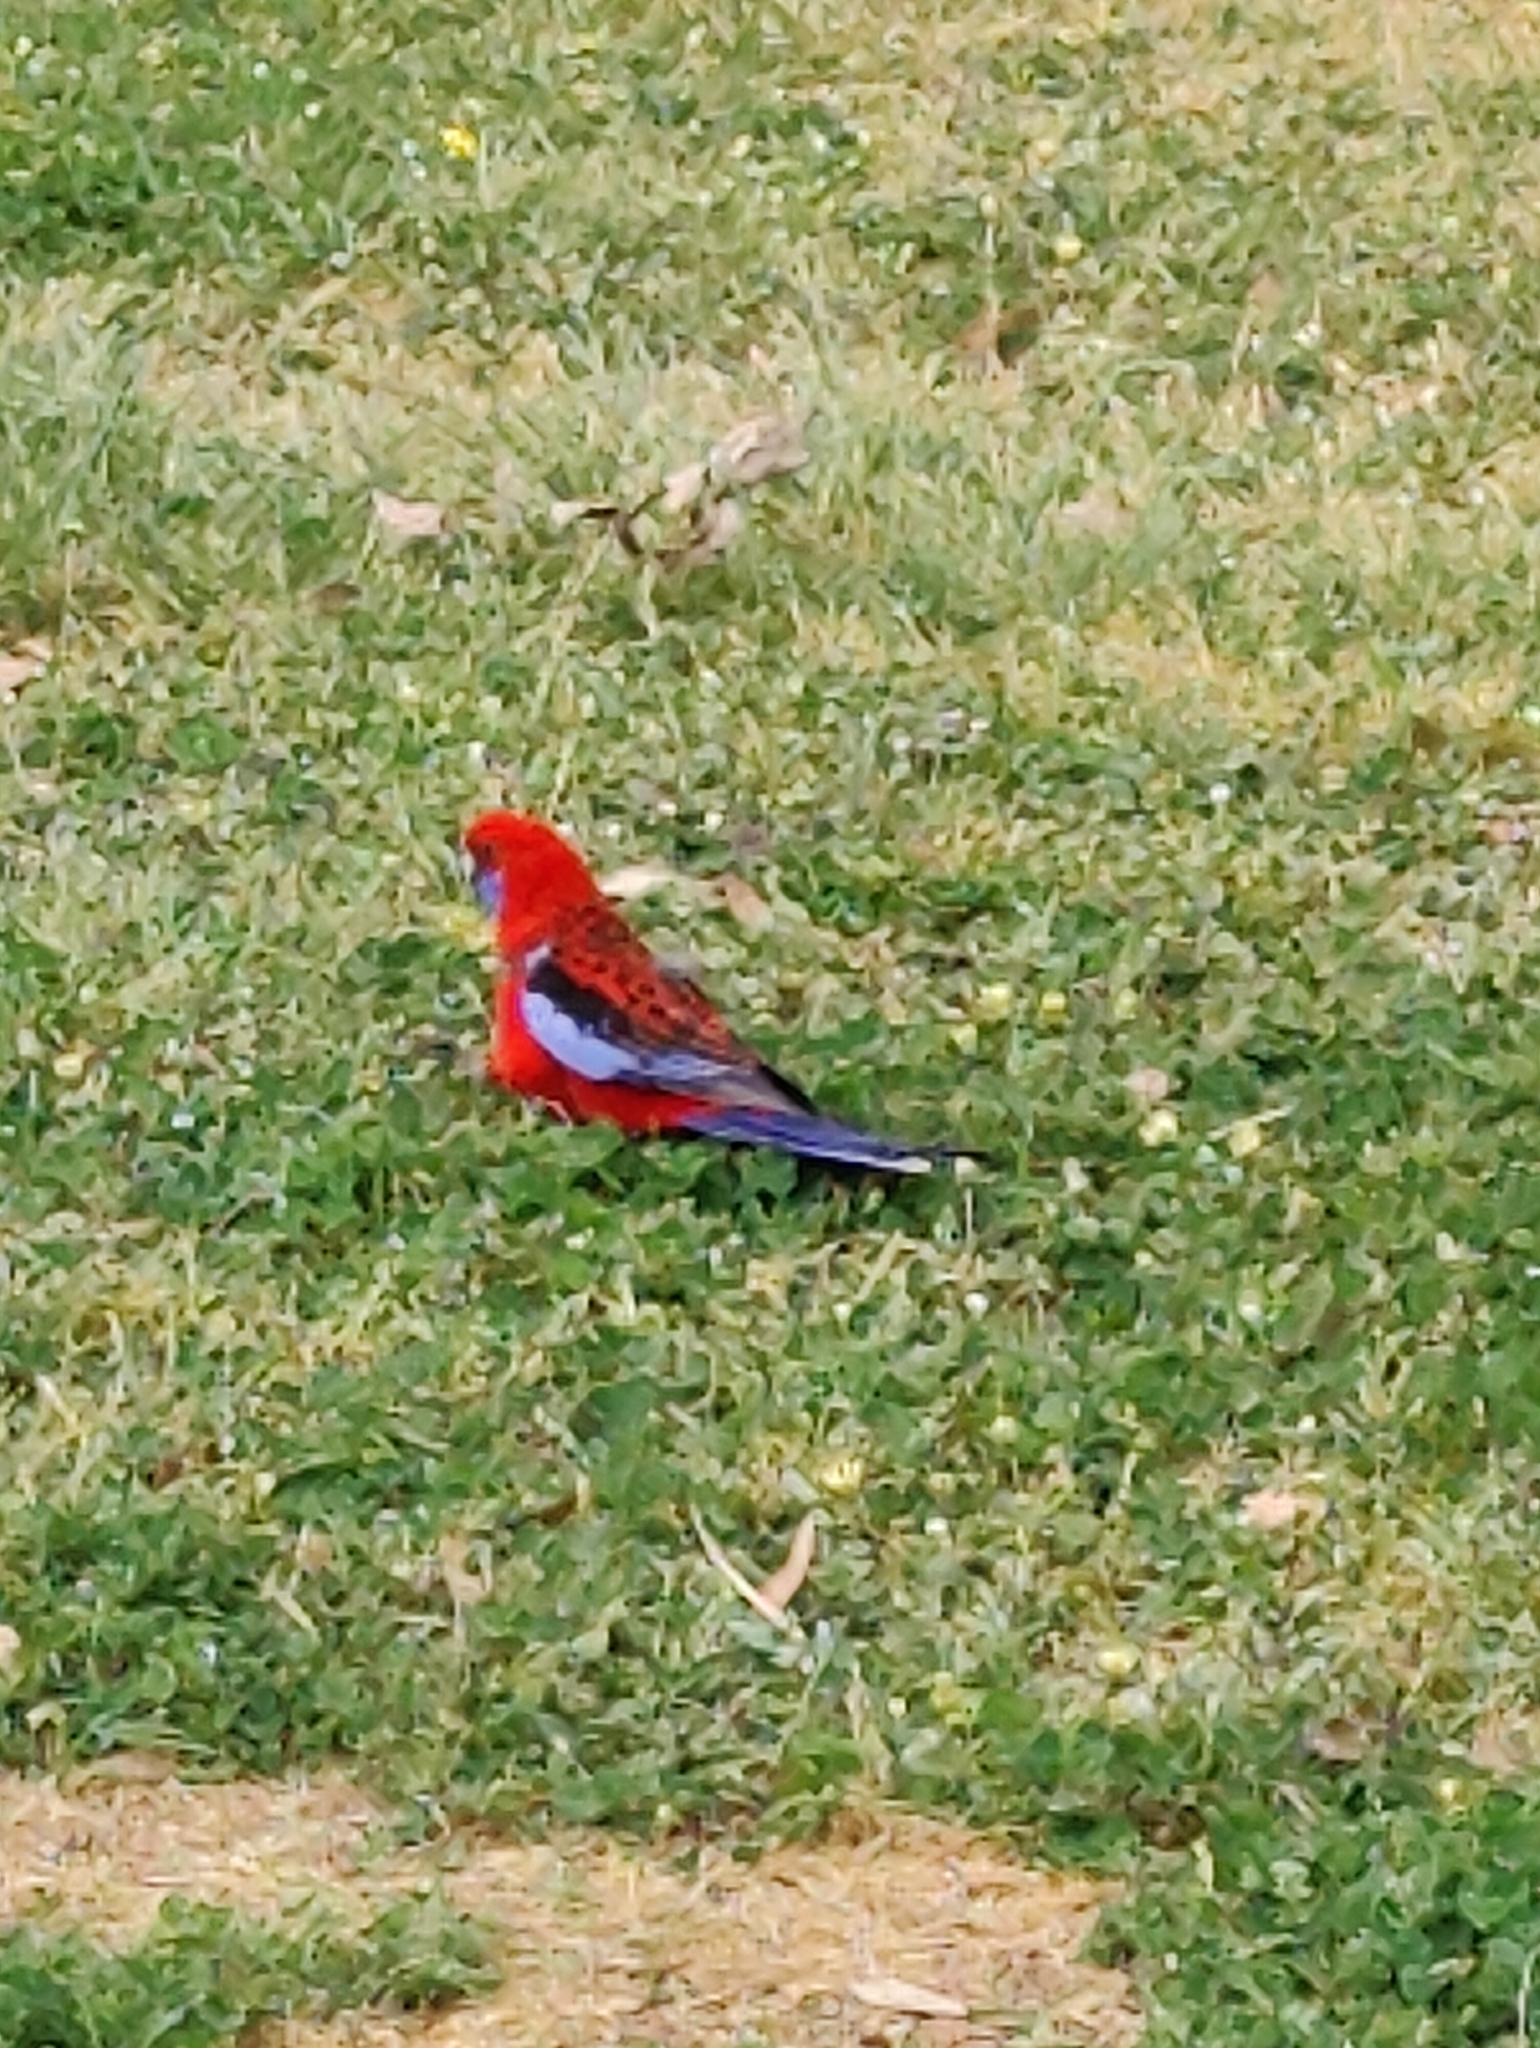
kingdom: Animalia
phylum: Chordata
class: Aves
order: Psittaciformes
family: Psittacidae
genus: Platycercus
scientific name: Platycercus elegans
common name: Crimson rosella
